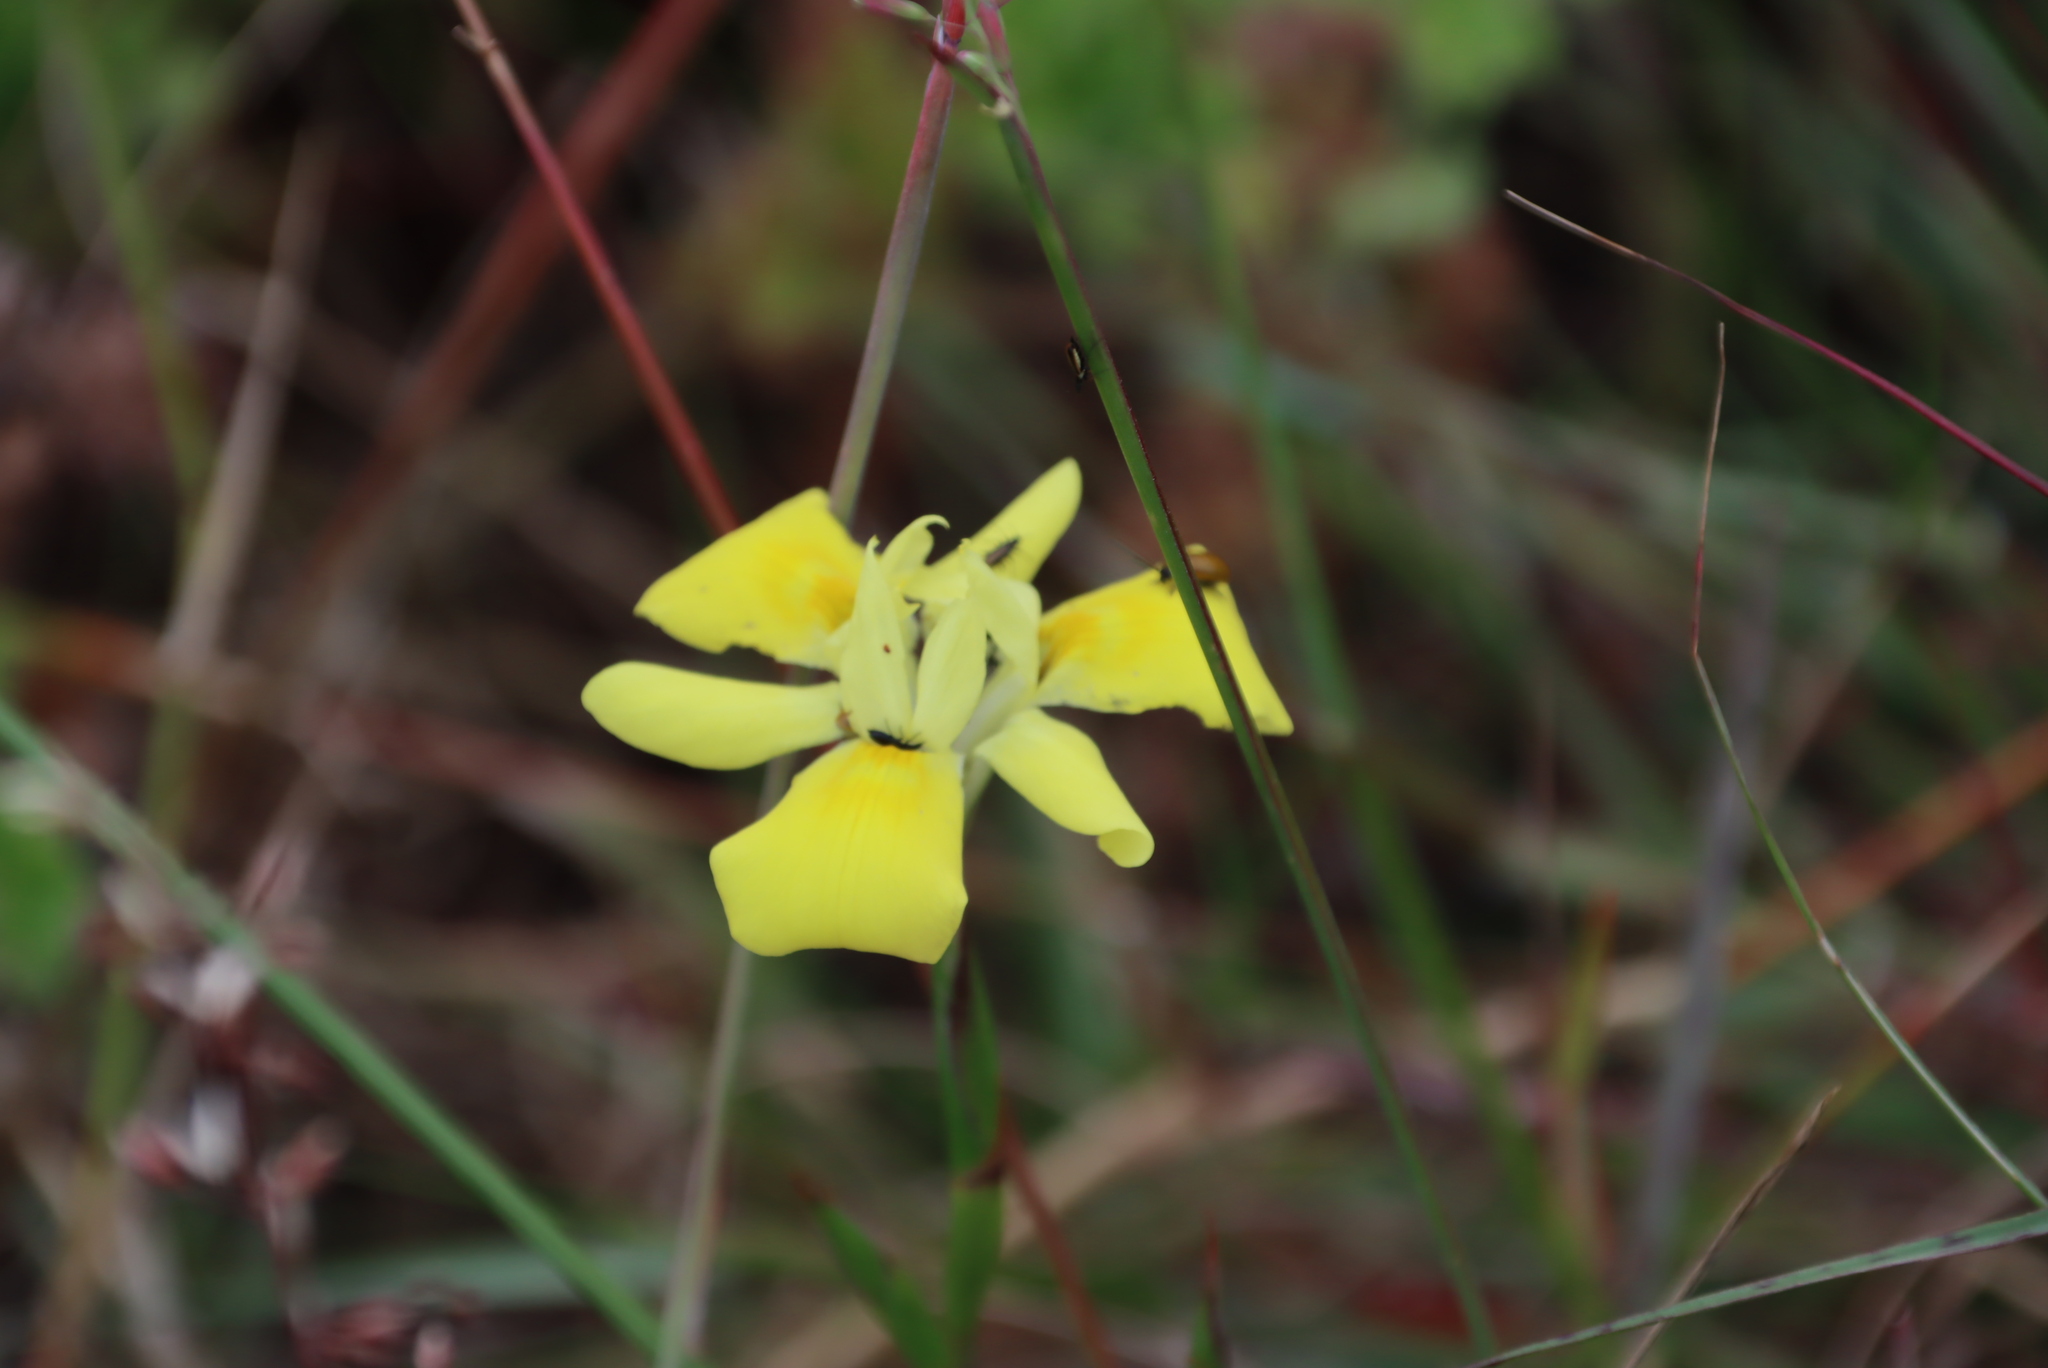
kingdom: Plantae
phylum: Tracheophyta
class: Liliopsida
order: Asparagales
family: Iridaceae
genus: Moraea
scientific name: Moraea fugax
